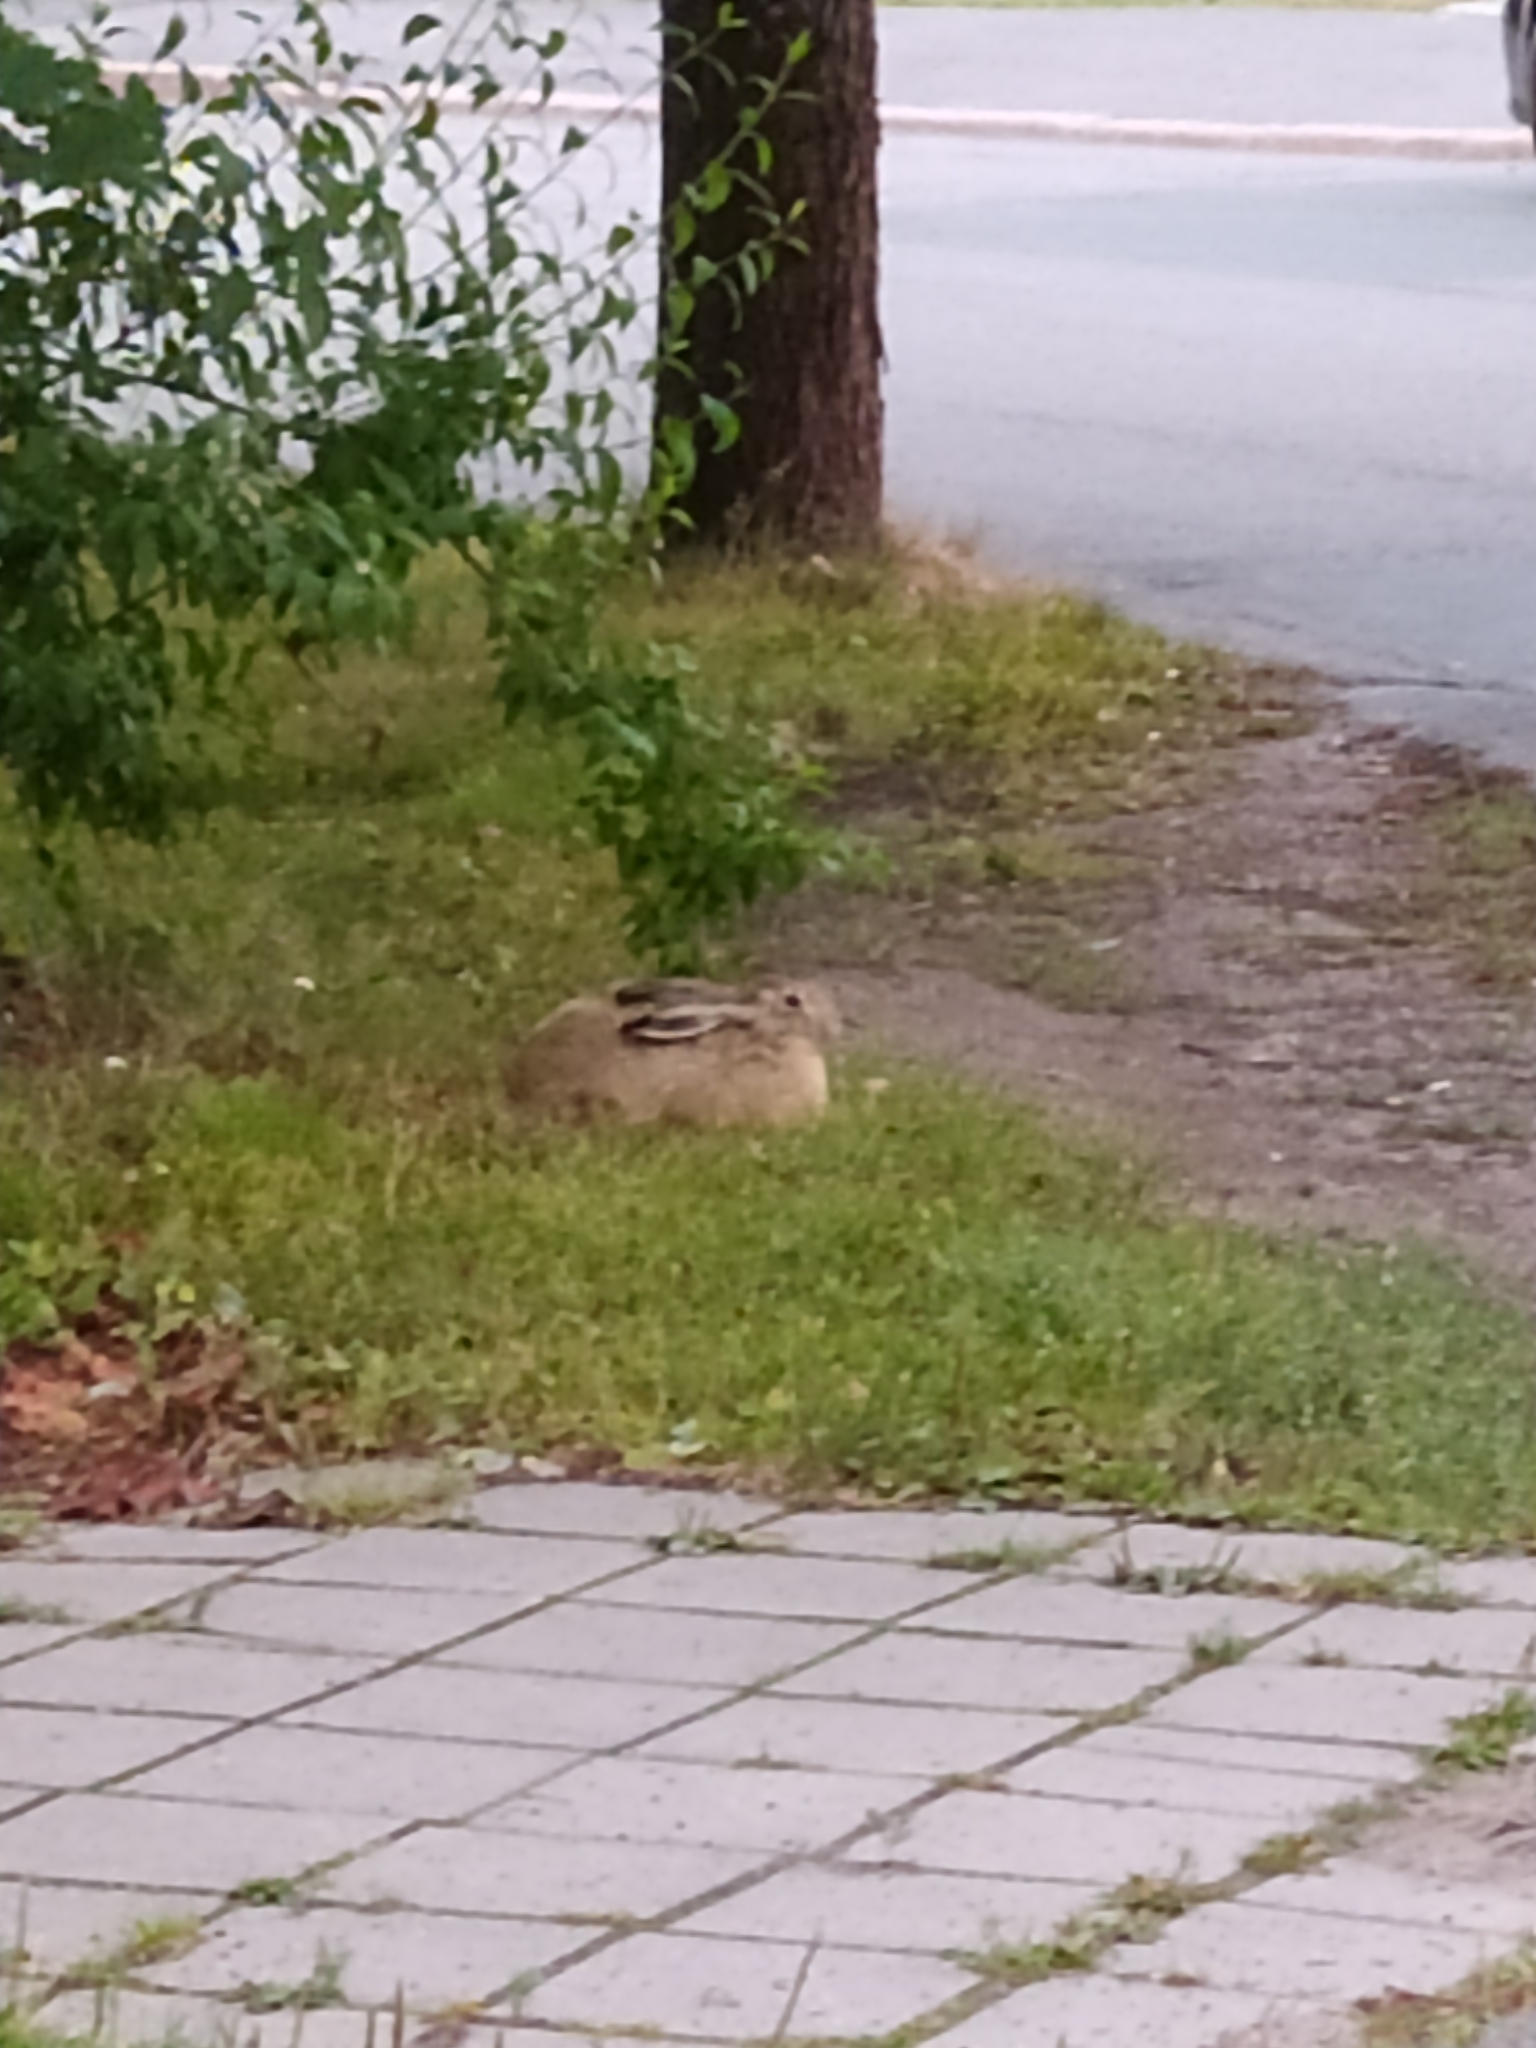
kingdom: Animalia
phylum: Chordata
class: Mammalia
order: Lagomorpha
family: Leporidae
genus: Lepus
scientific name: Lepus europaeus
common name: European hare
